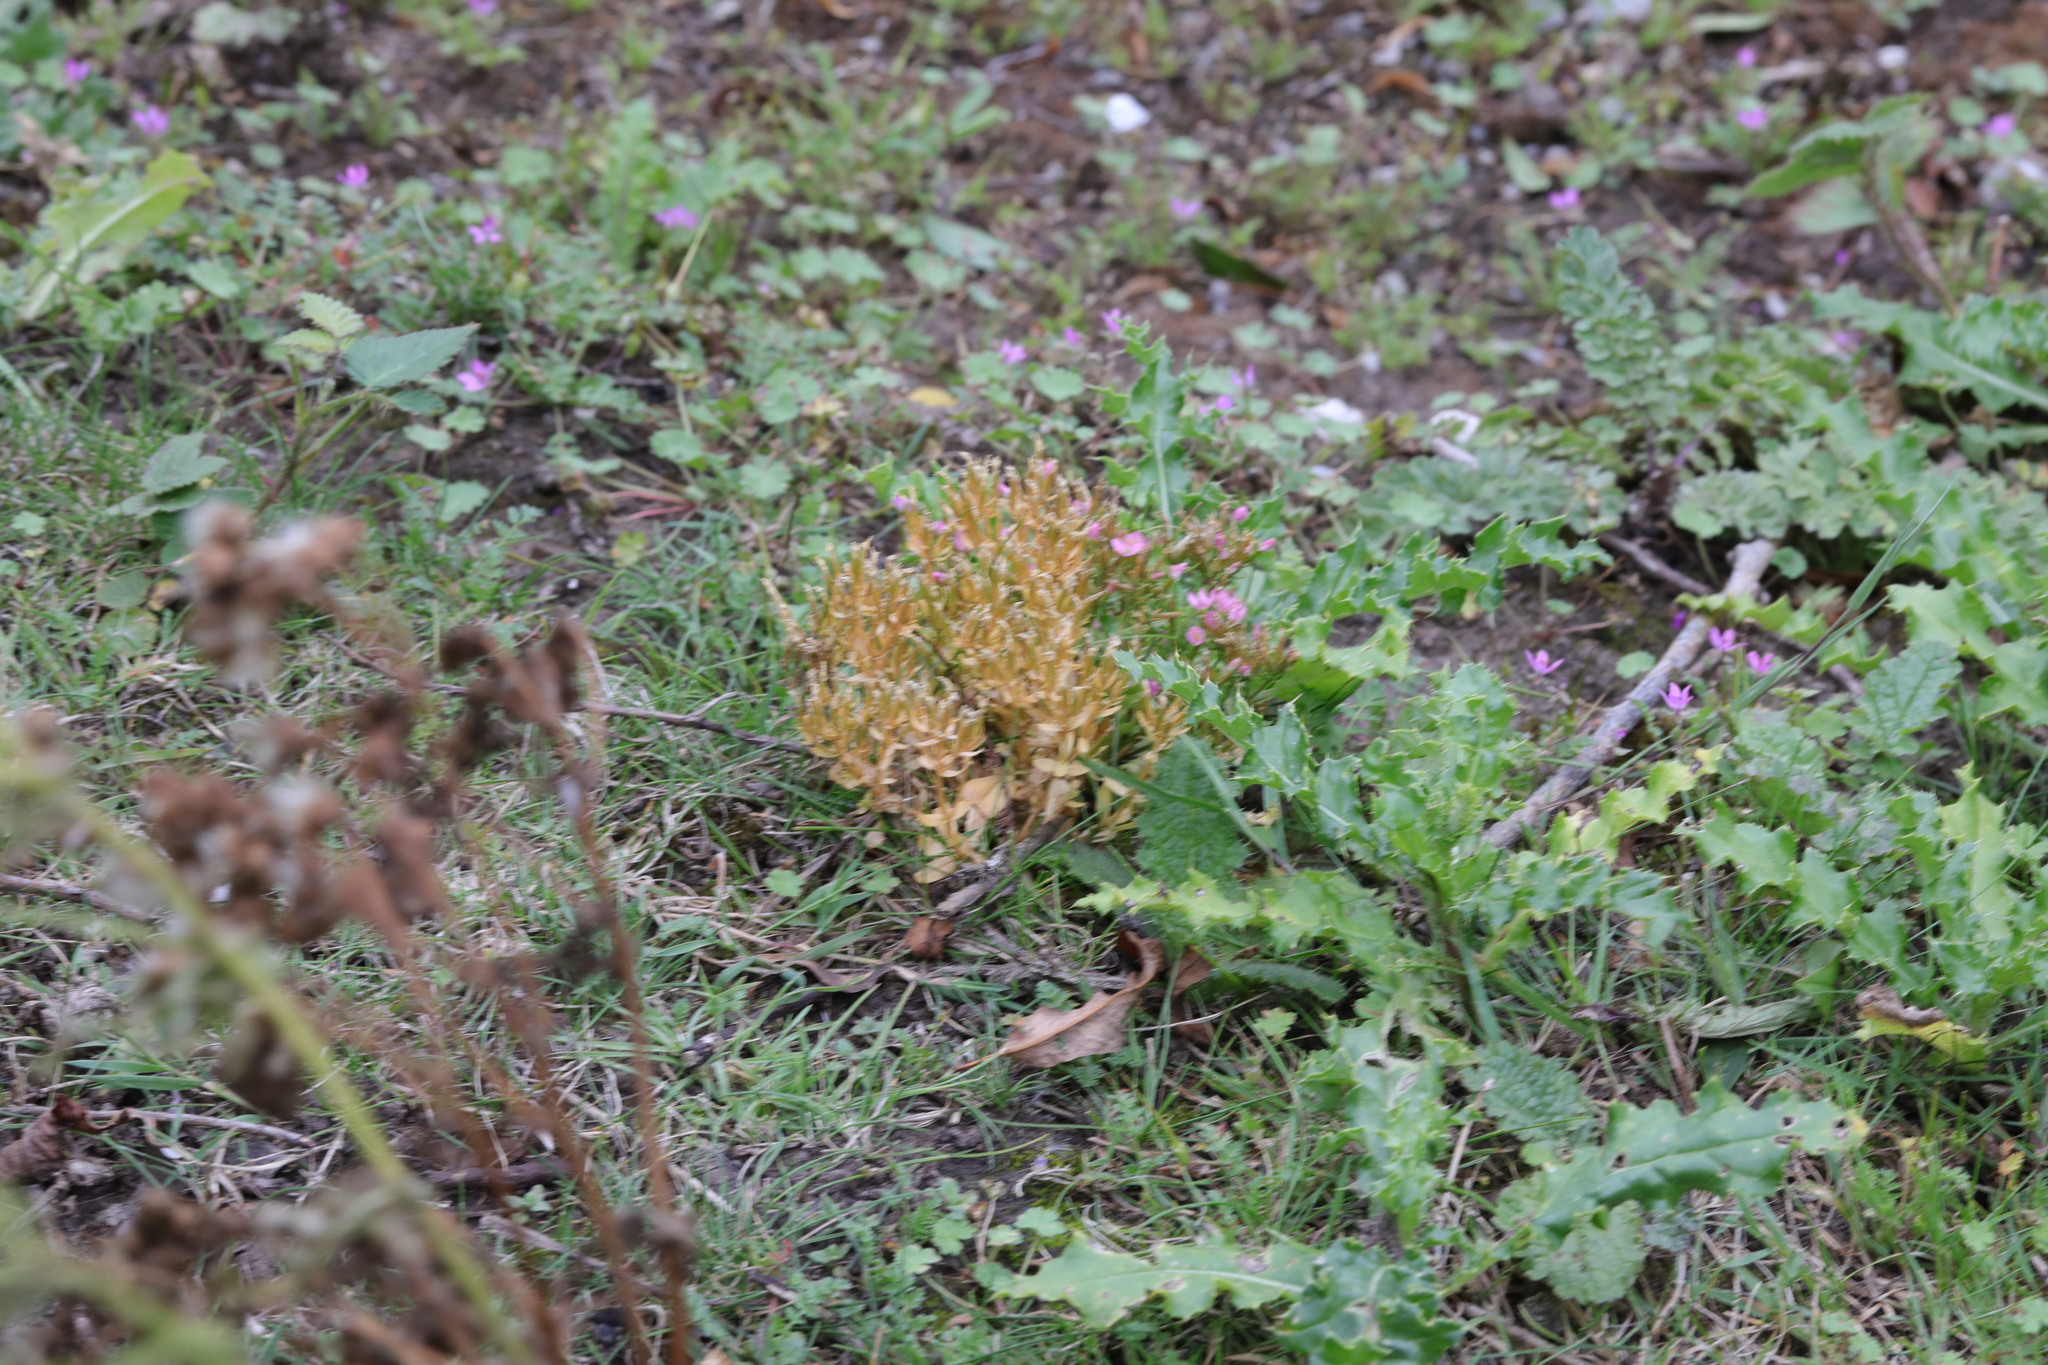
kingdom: Plantae
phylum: Tracheophyta
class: Magnoliopsida
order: Gentianales
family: Gentianaceae
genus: Centaurium
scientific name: Centaurium erythraea
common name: Common centaury
